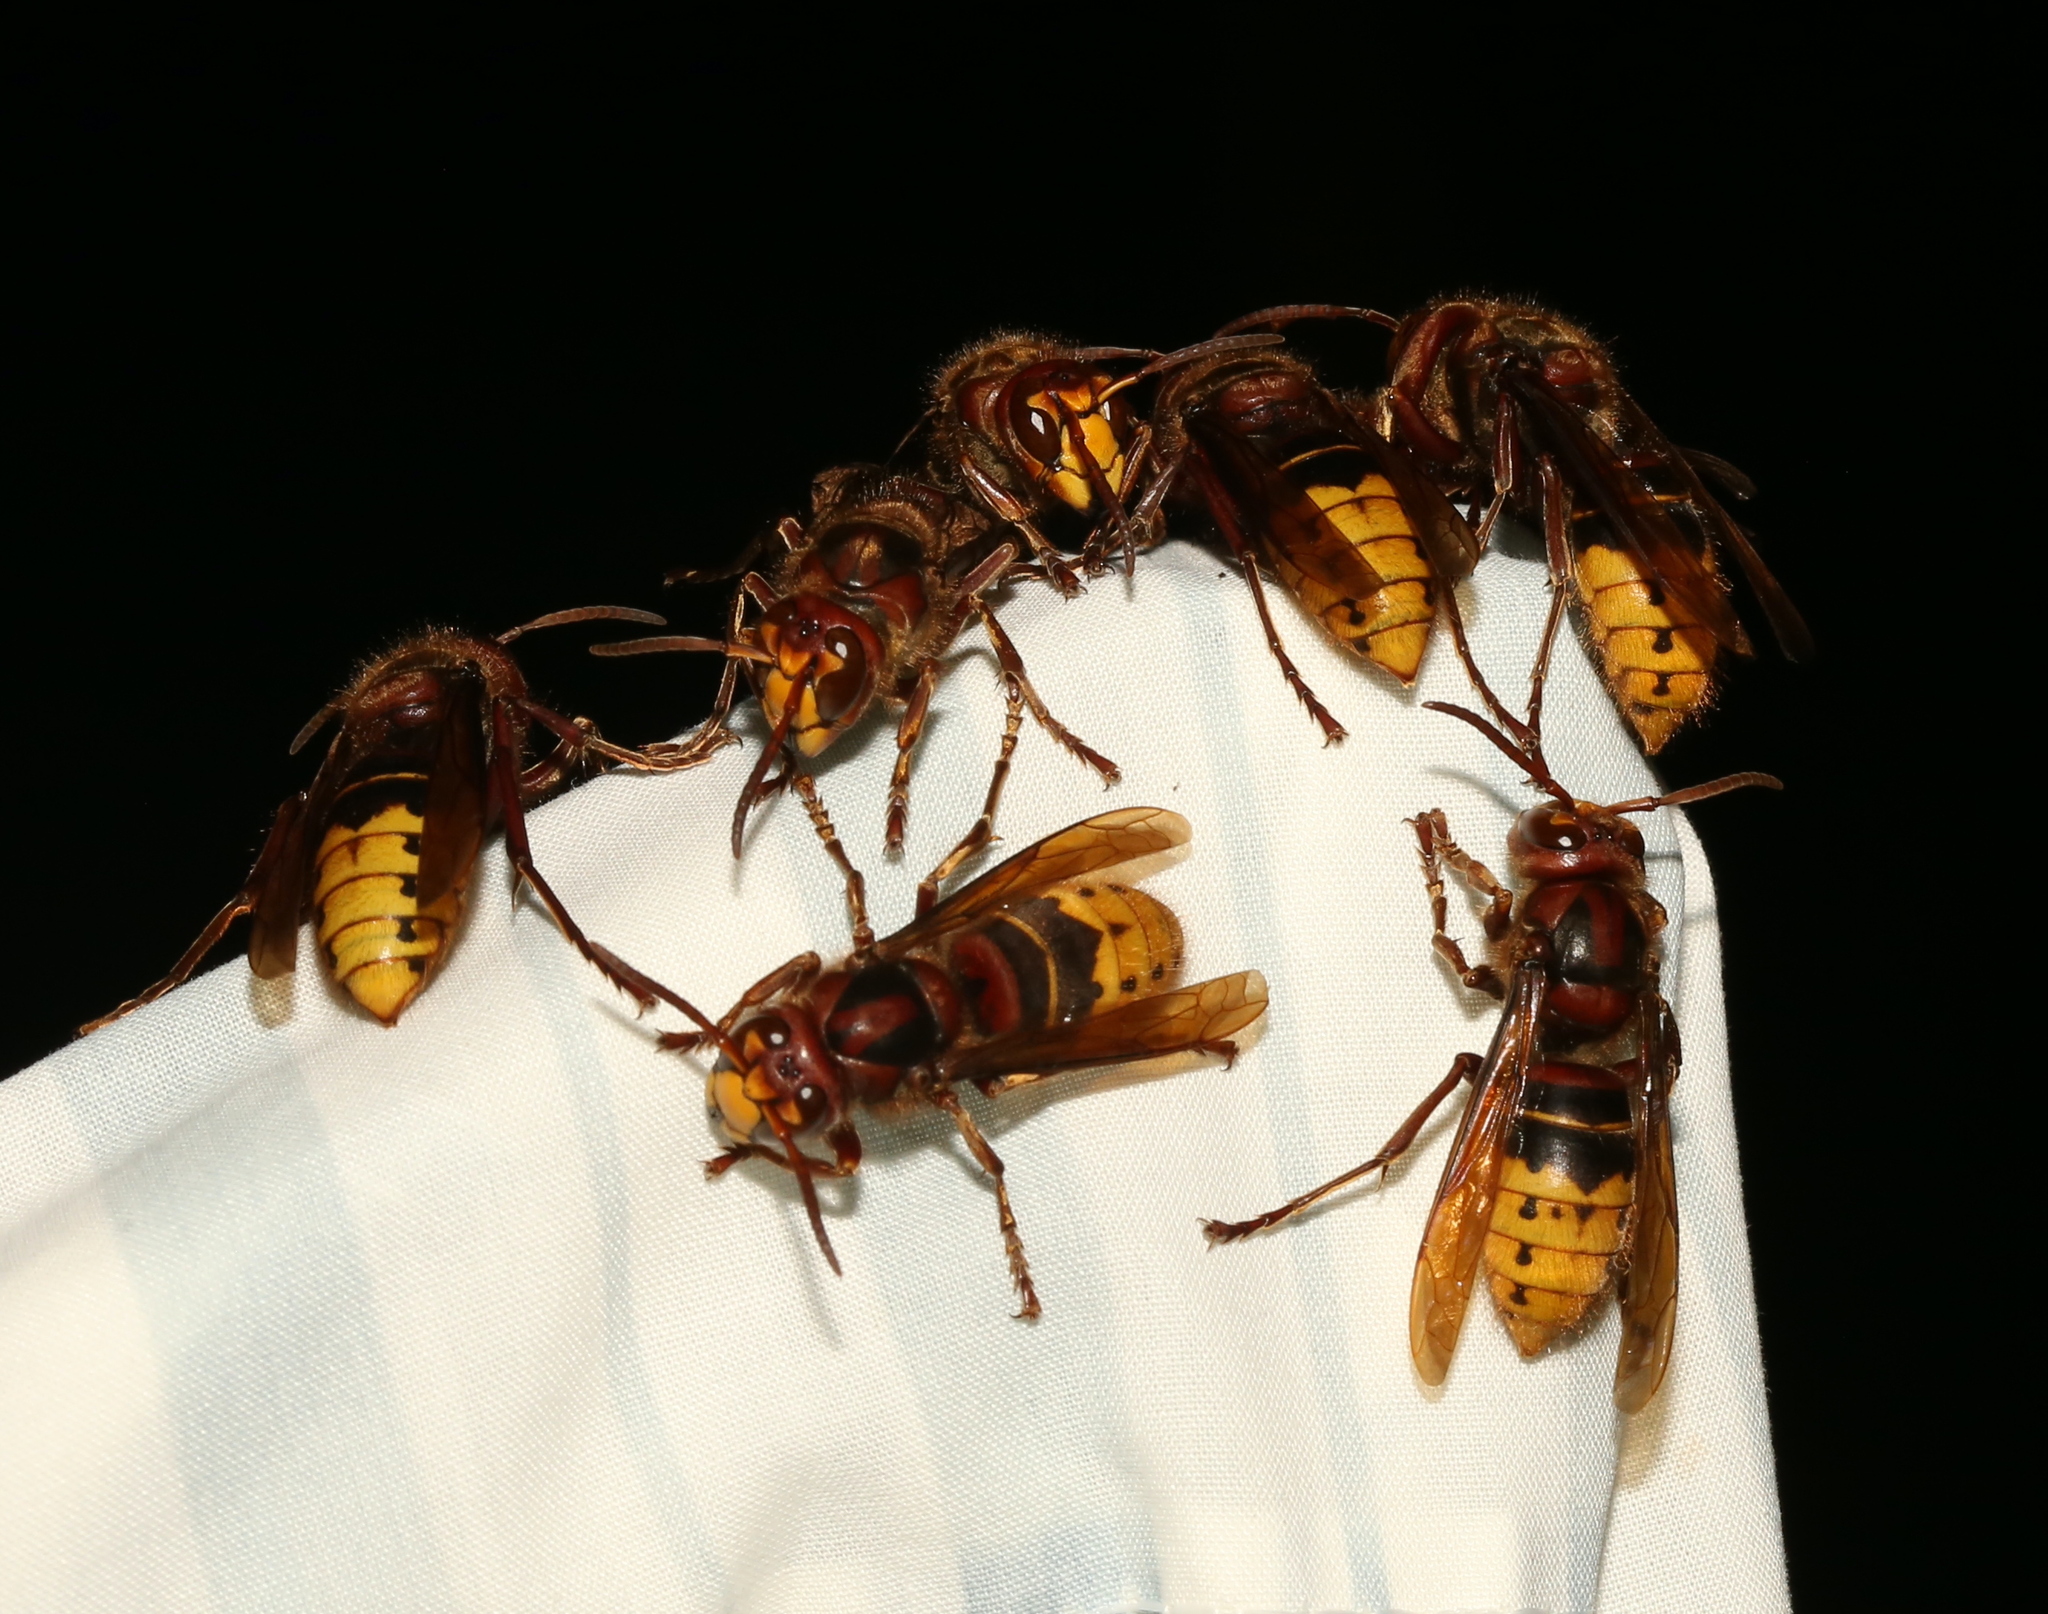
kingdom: Animalia
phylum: Arthropoda
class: Insecta
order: Hymenoptera
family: Vespidae
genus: Vespa
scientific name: Vespa crabro
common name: Hornet
